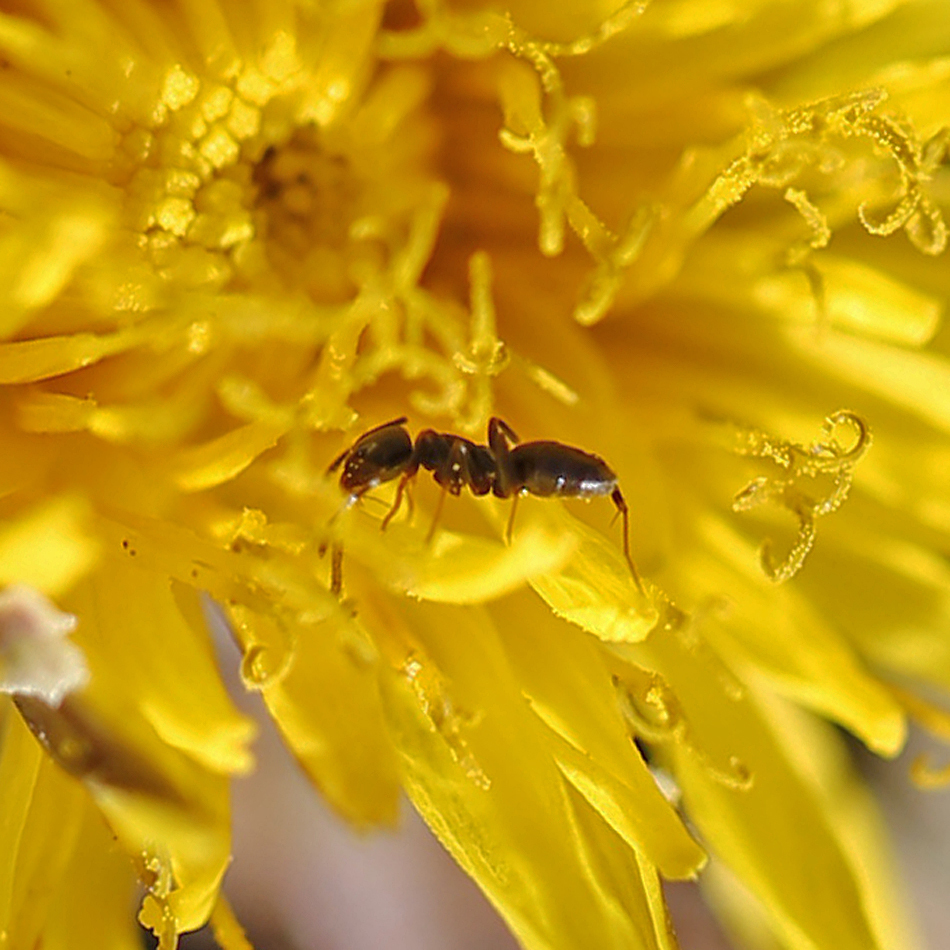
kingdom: Animalia
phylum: Arthropoda
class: Insecta
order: Hymenoptera
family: Formicidae
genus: Tapinoma
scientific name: Tapinoma sessile
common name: Odorous house ant
